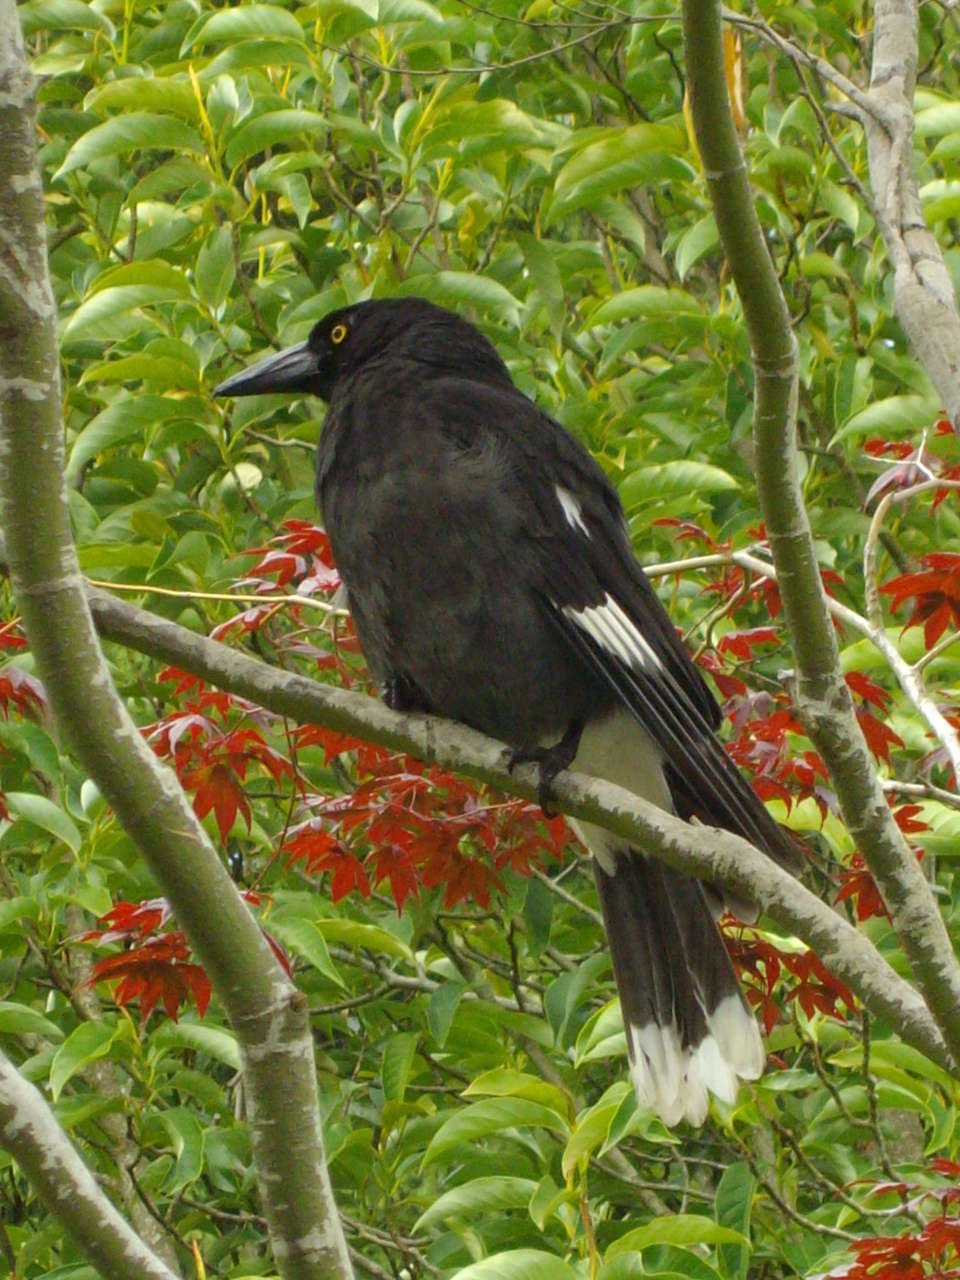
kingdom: Animalia
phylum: Chordata
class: Aves
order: Passeriformes
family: Cracticidae
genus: Strepera
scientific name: Strepera graculina
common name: Pied currawong
